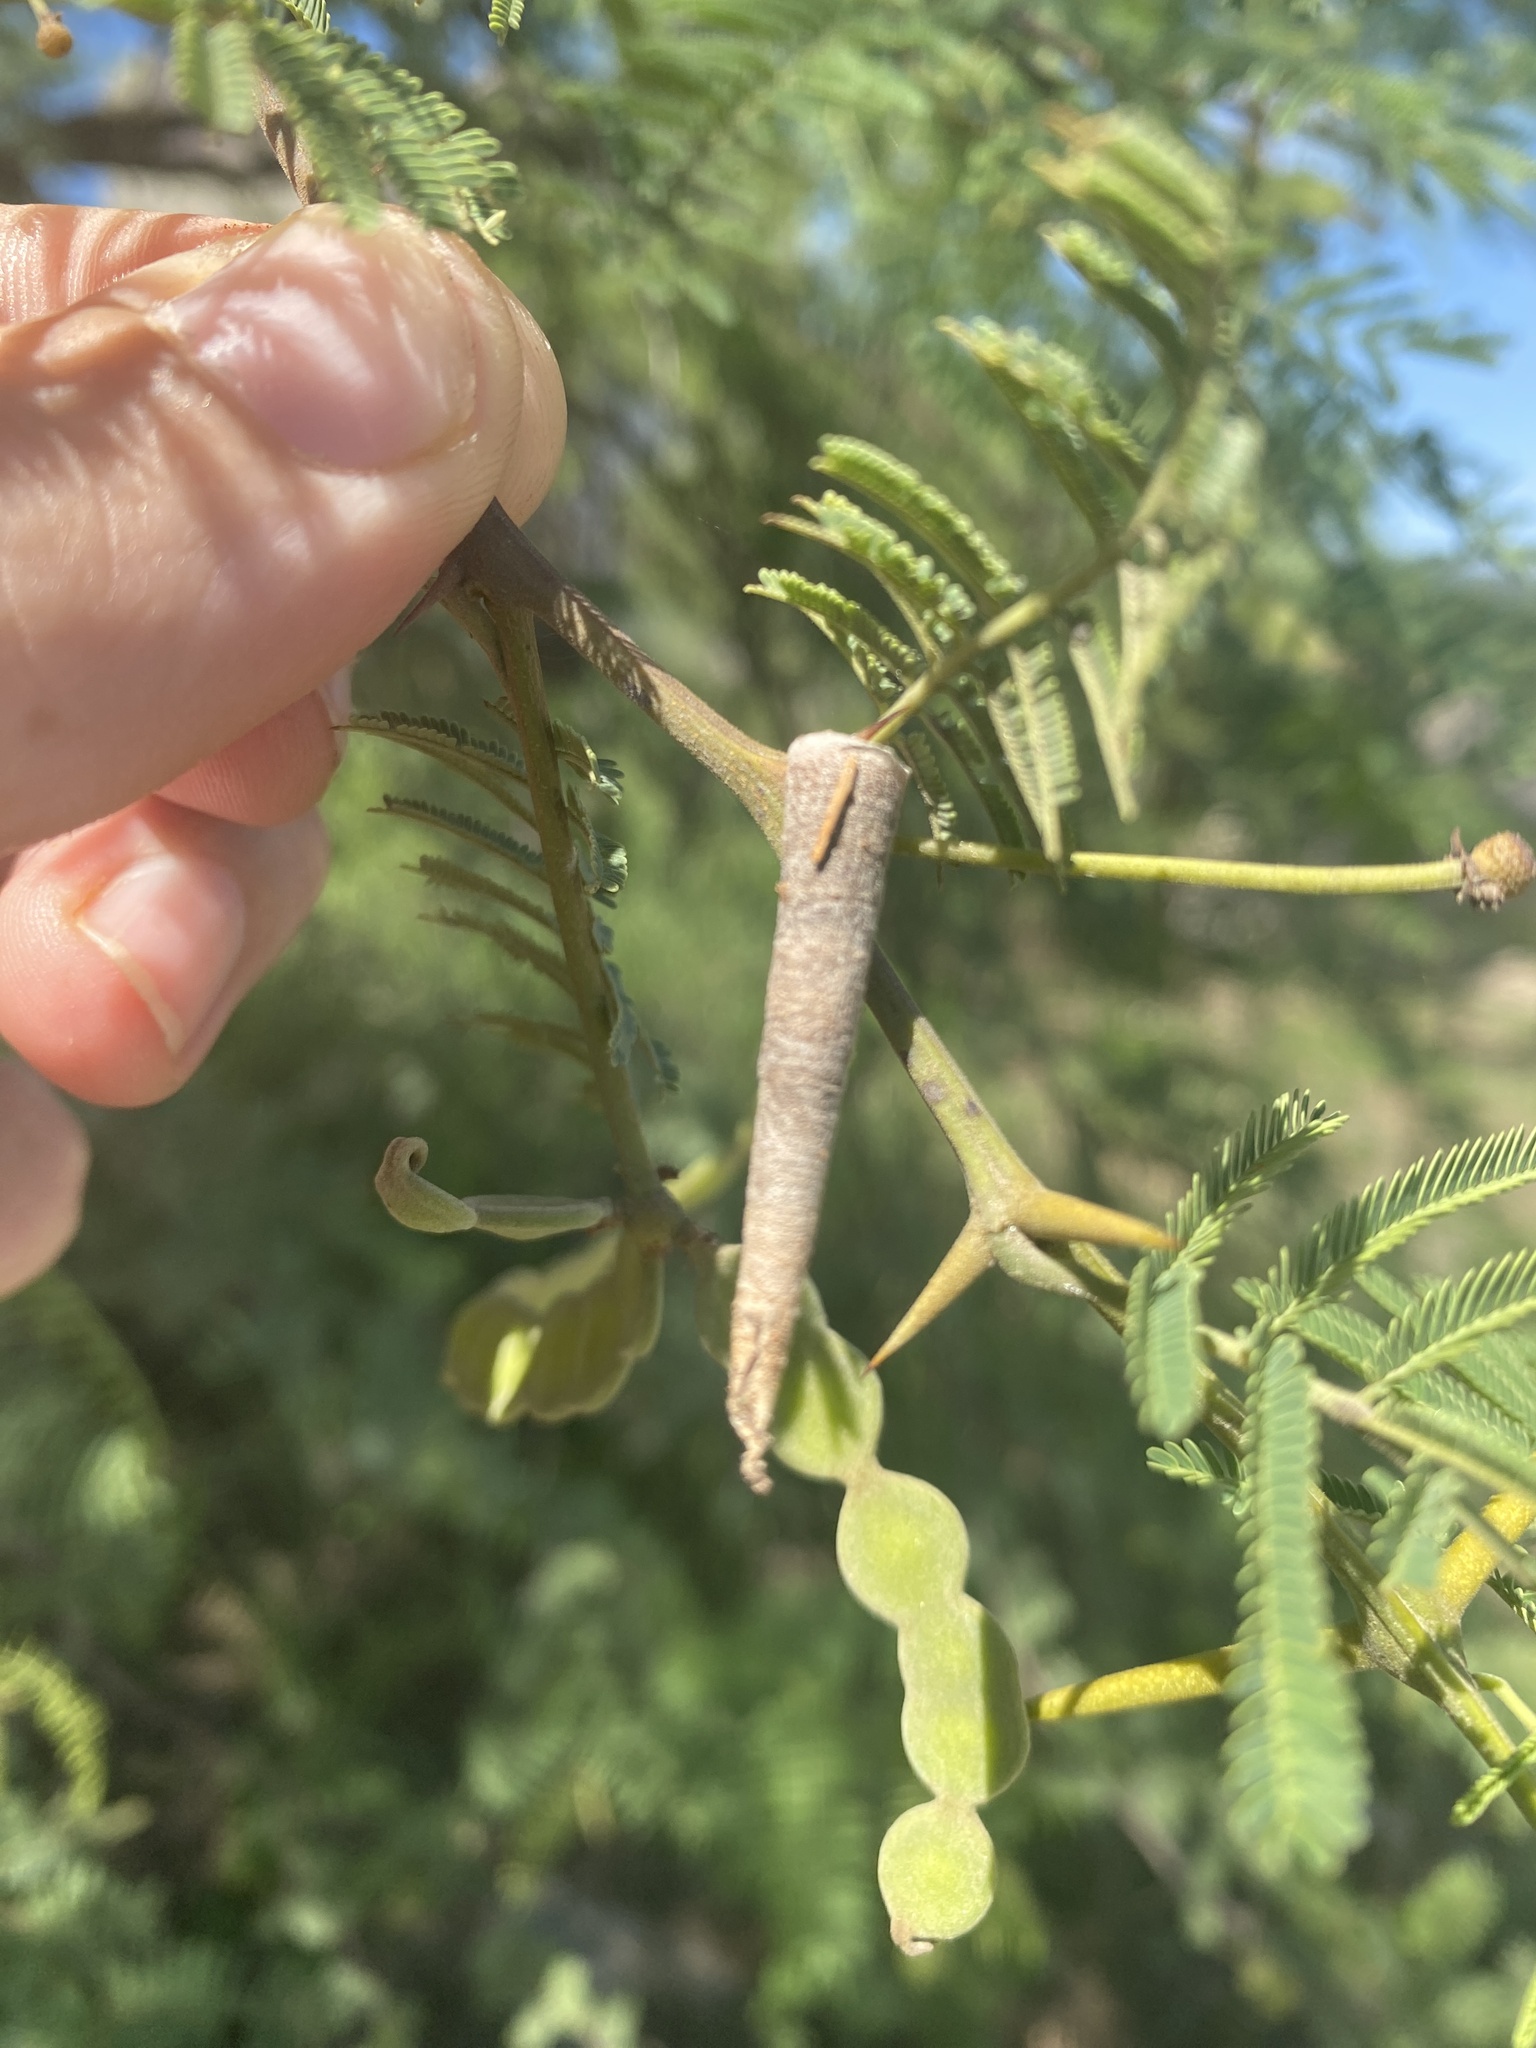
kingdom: Animalia
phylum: Arthropoda
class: Insecta
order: Lepidoptera
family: Psychidae
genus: Oiketicus
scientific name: Oiketicus geyeri
